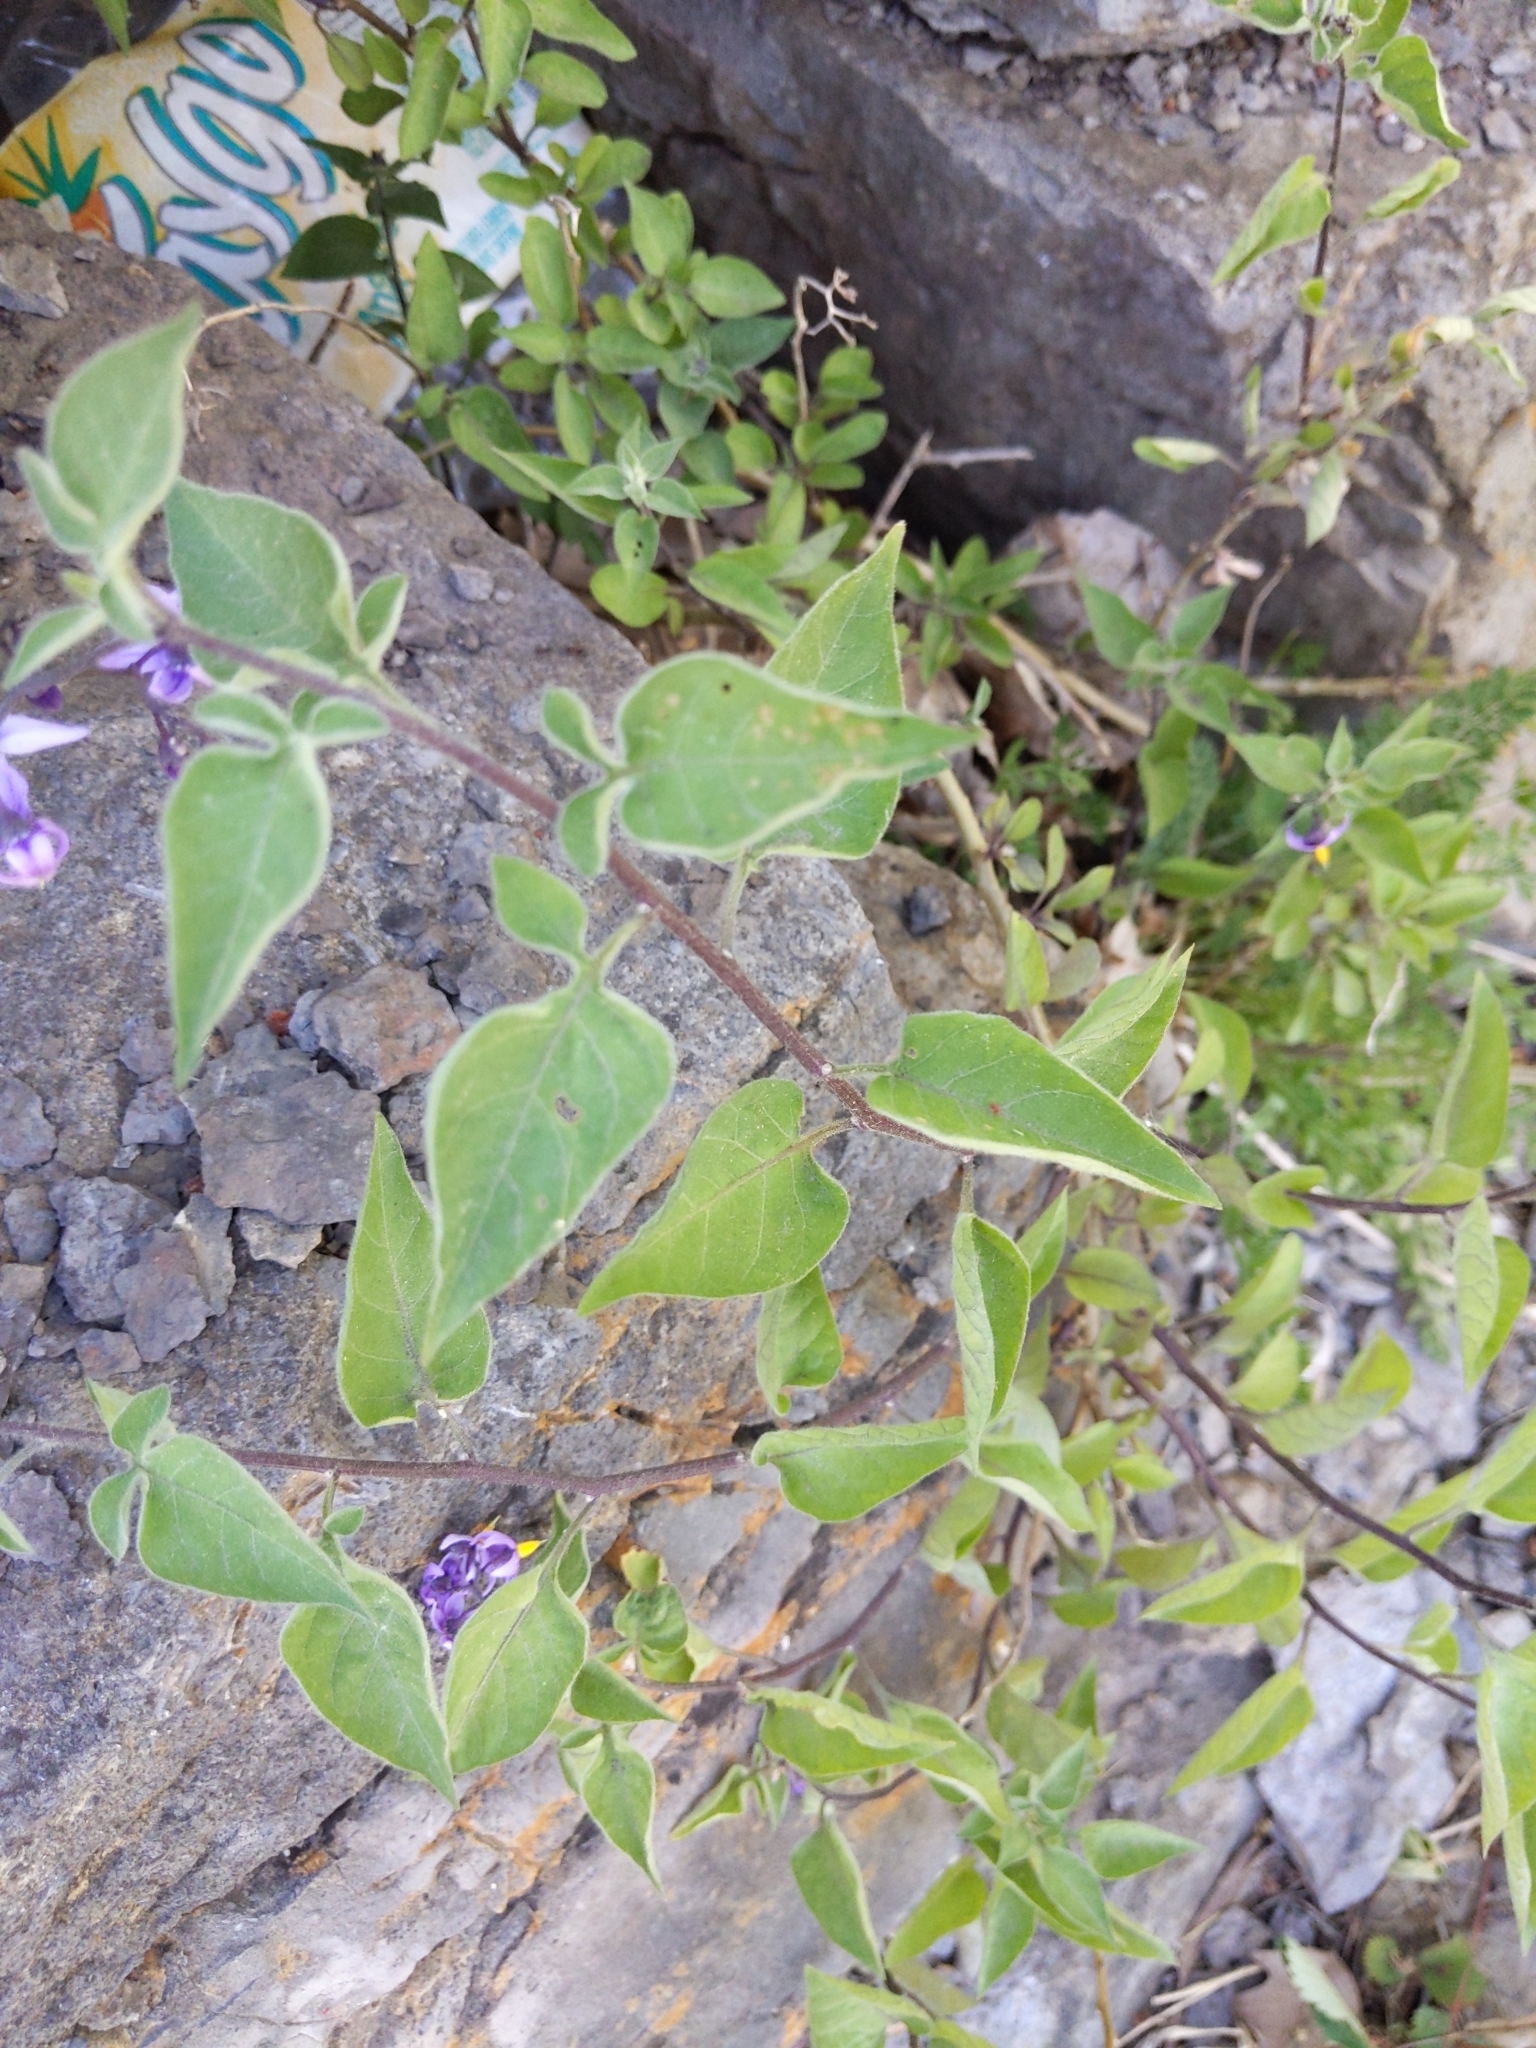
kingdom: Plantae
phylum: Tracheophyta
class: Magnoliopsida
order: Solanales
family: Solanaceae
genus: Solanum
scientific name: Solanum dulcamara
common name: Climbing nightshade
